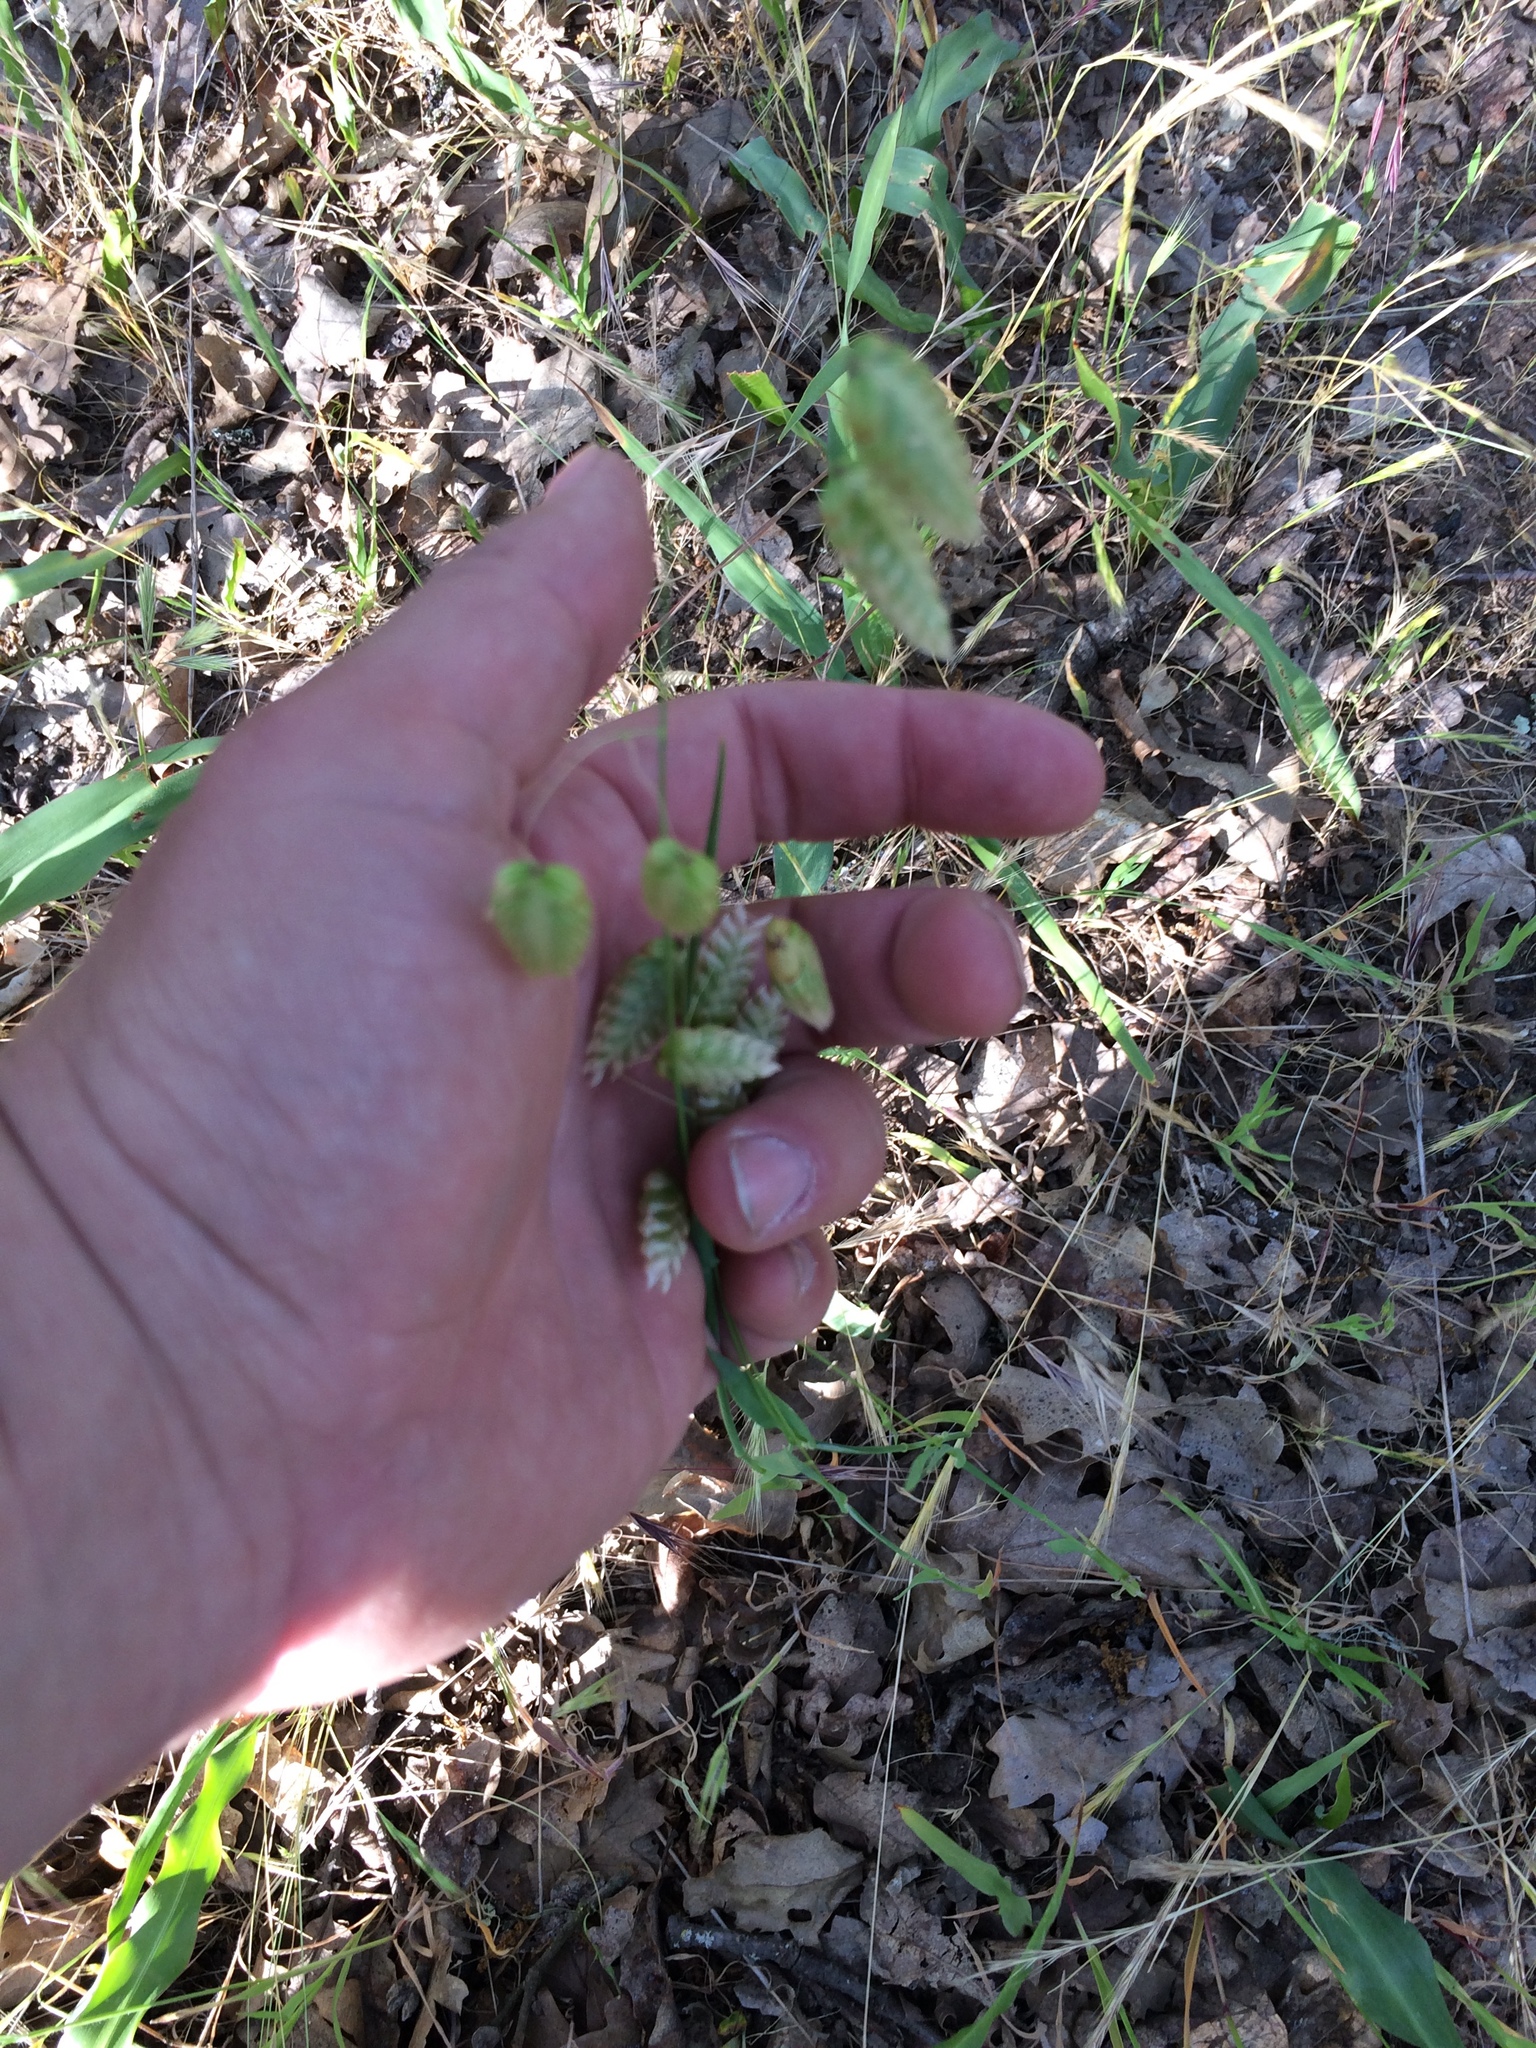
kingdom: Plantae
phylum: Tracheophyta
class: Liliopsida
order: Poales
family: Poaceae
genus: Briza
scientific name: Briza maxima
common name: Big quakinggrass
